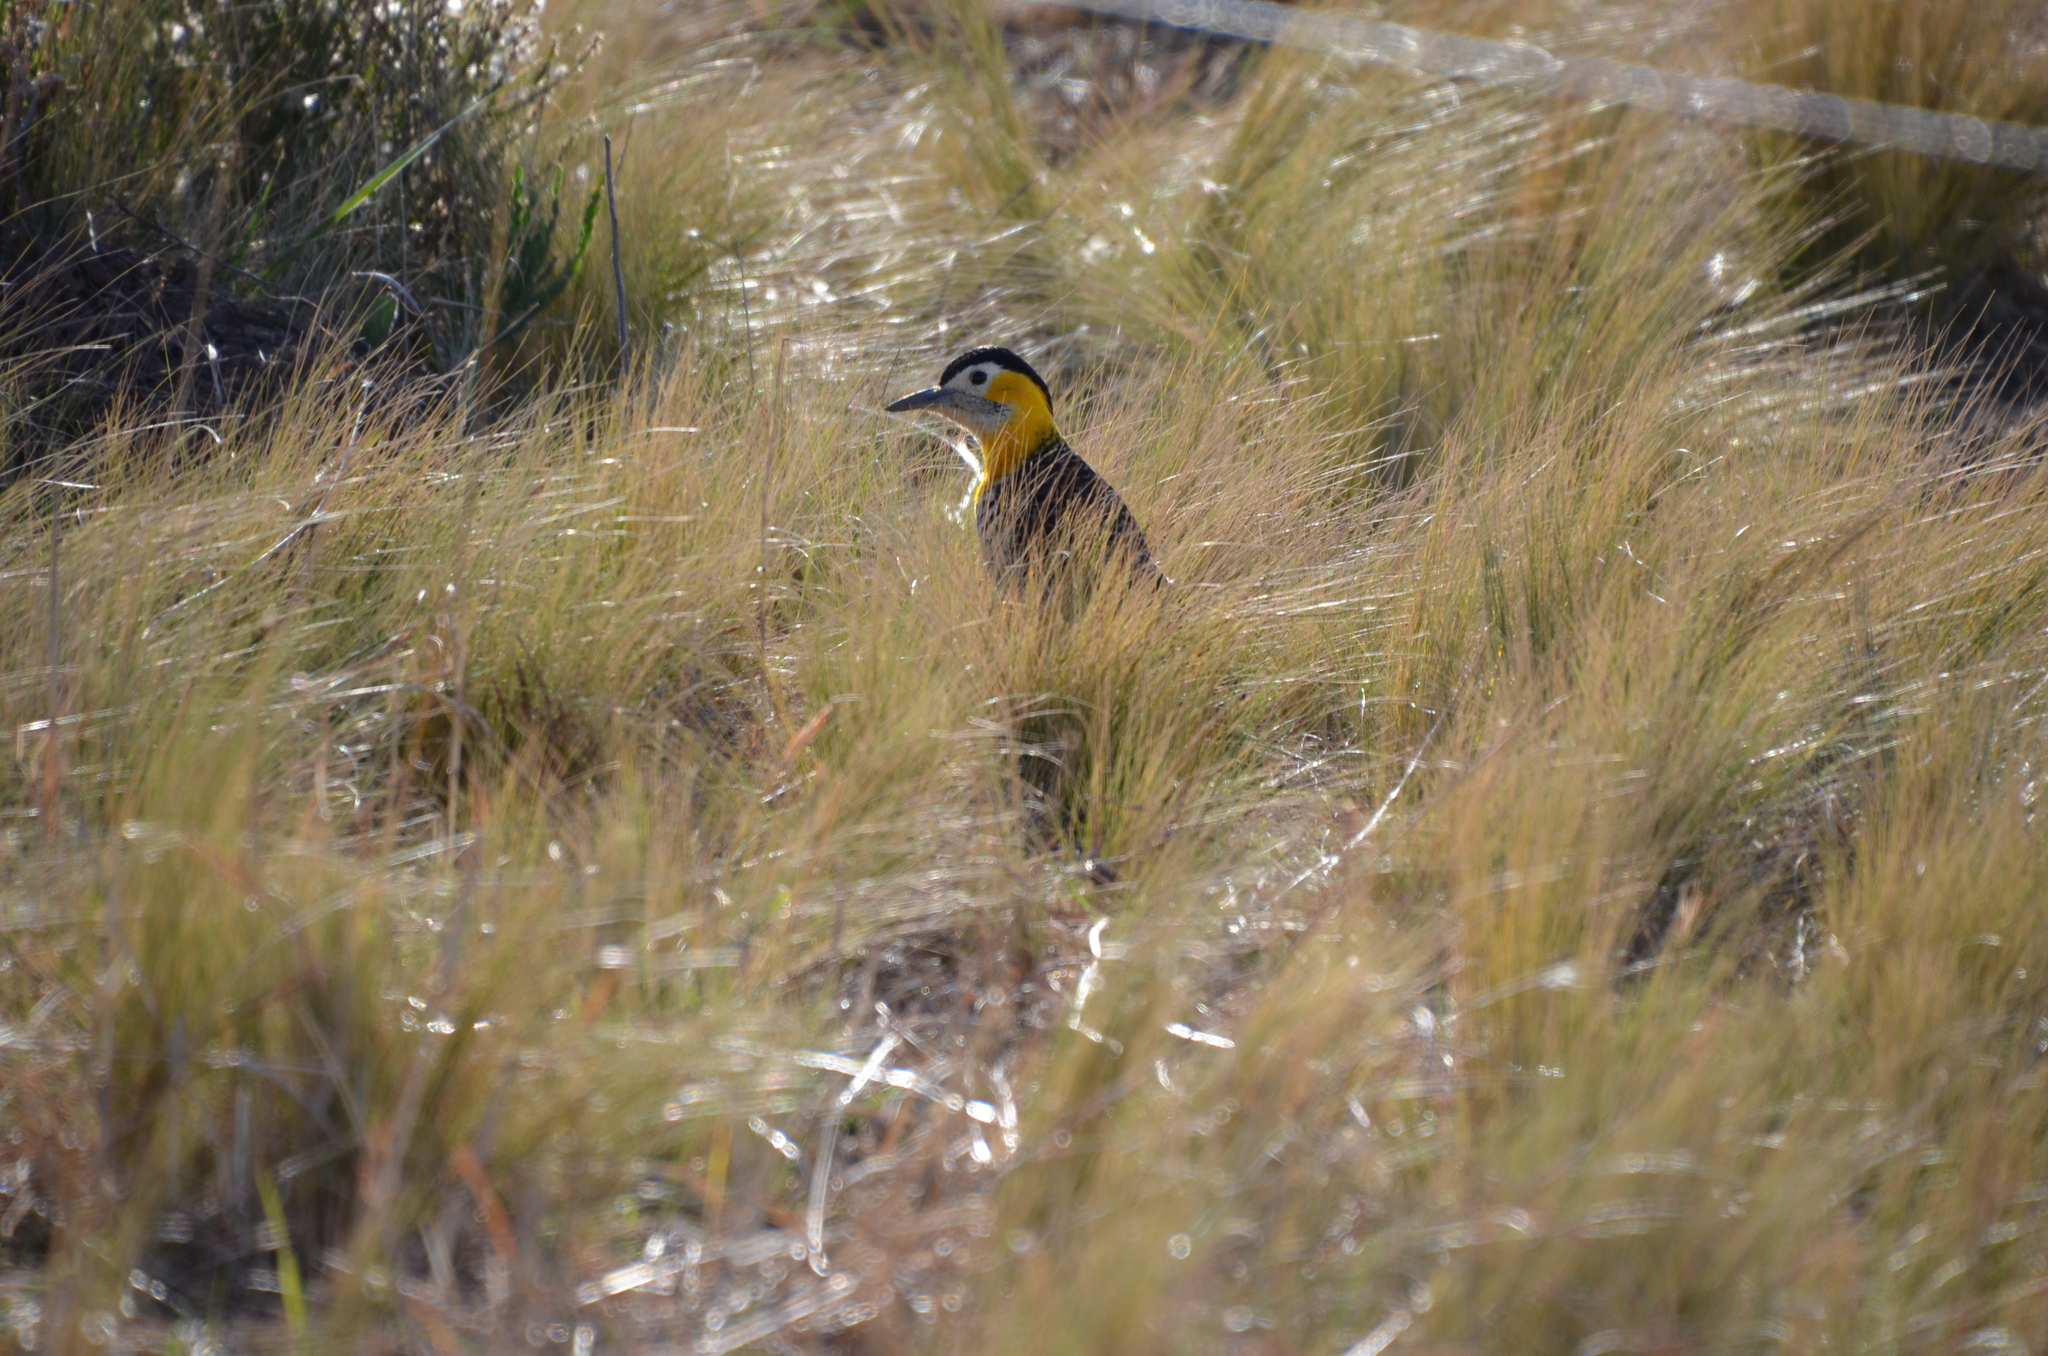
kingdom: Animalia
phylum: Chordata
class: Aves
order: Piciformes
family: Picidae
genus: Colaptes
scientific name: Colaptes campestris
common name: Campo flicker
